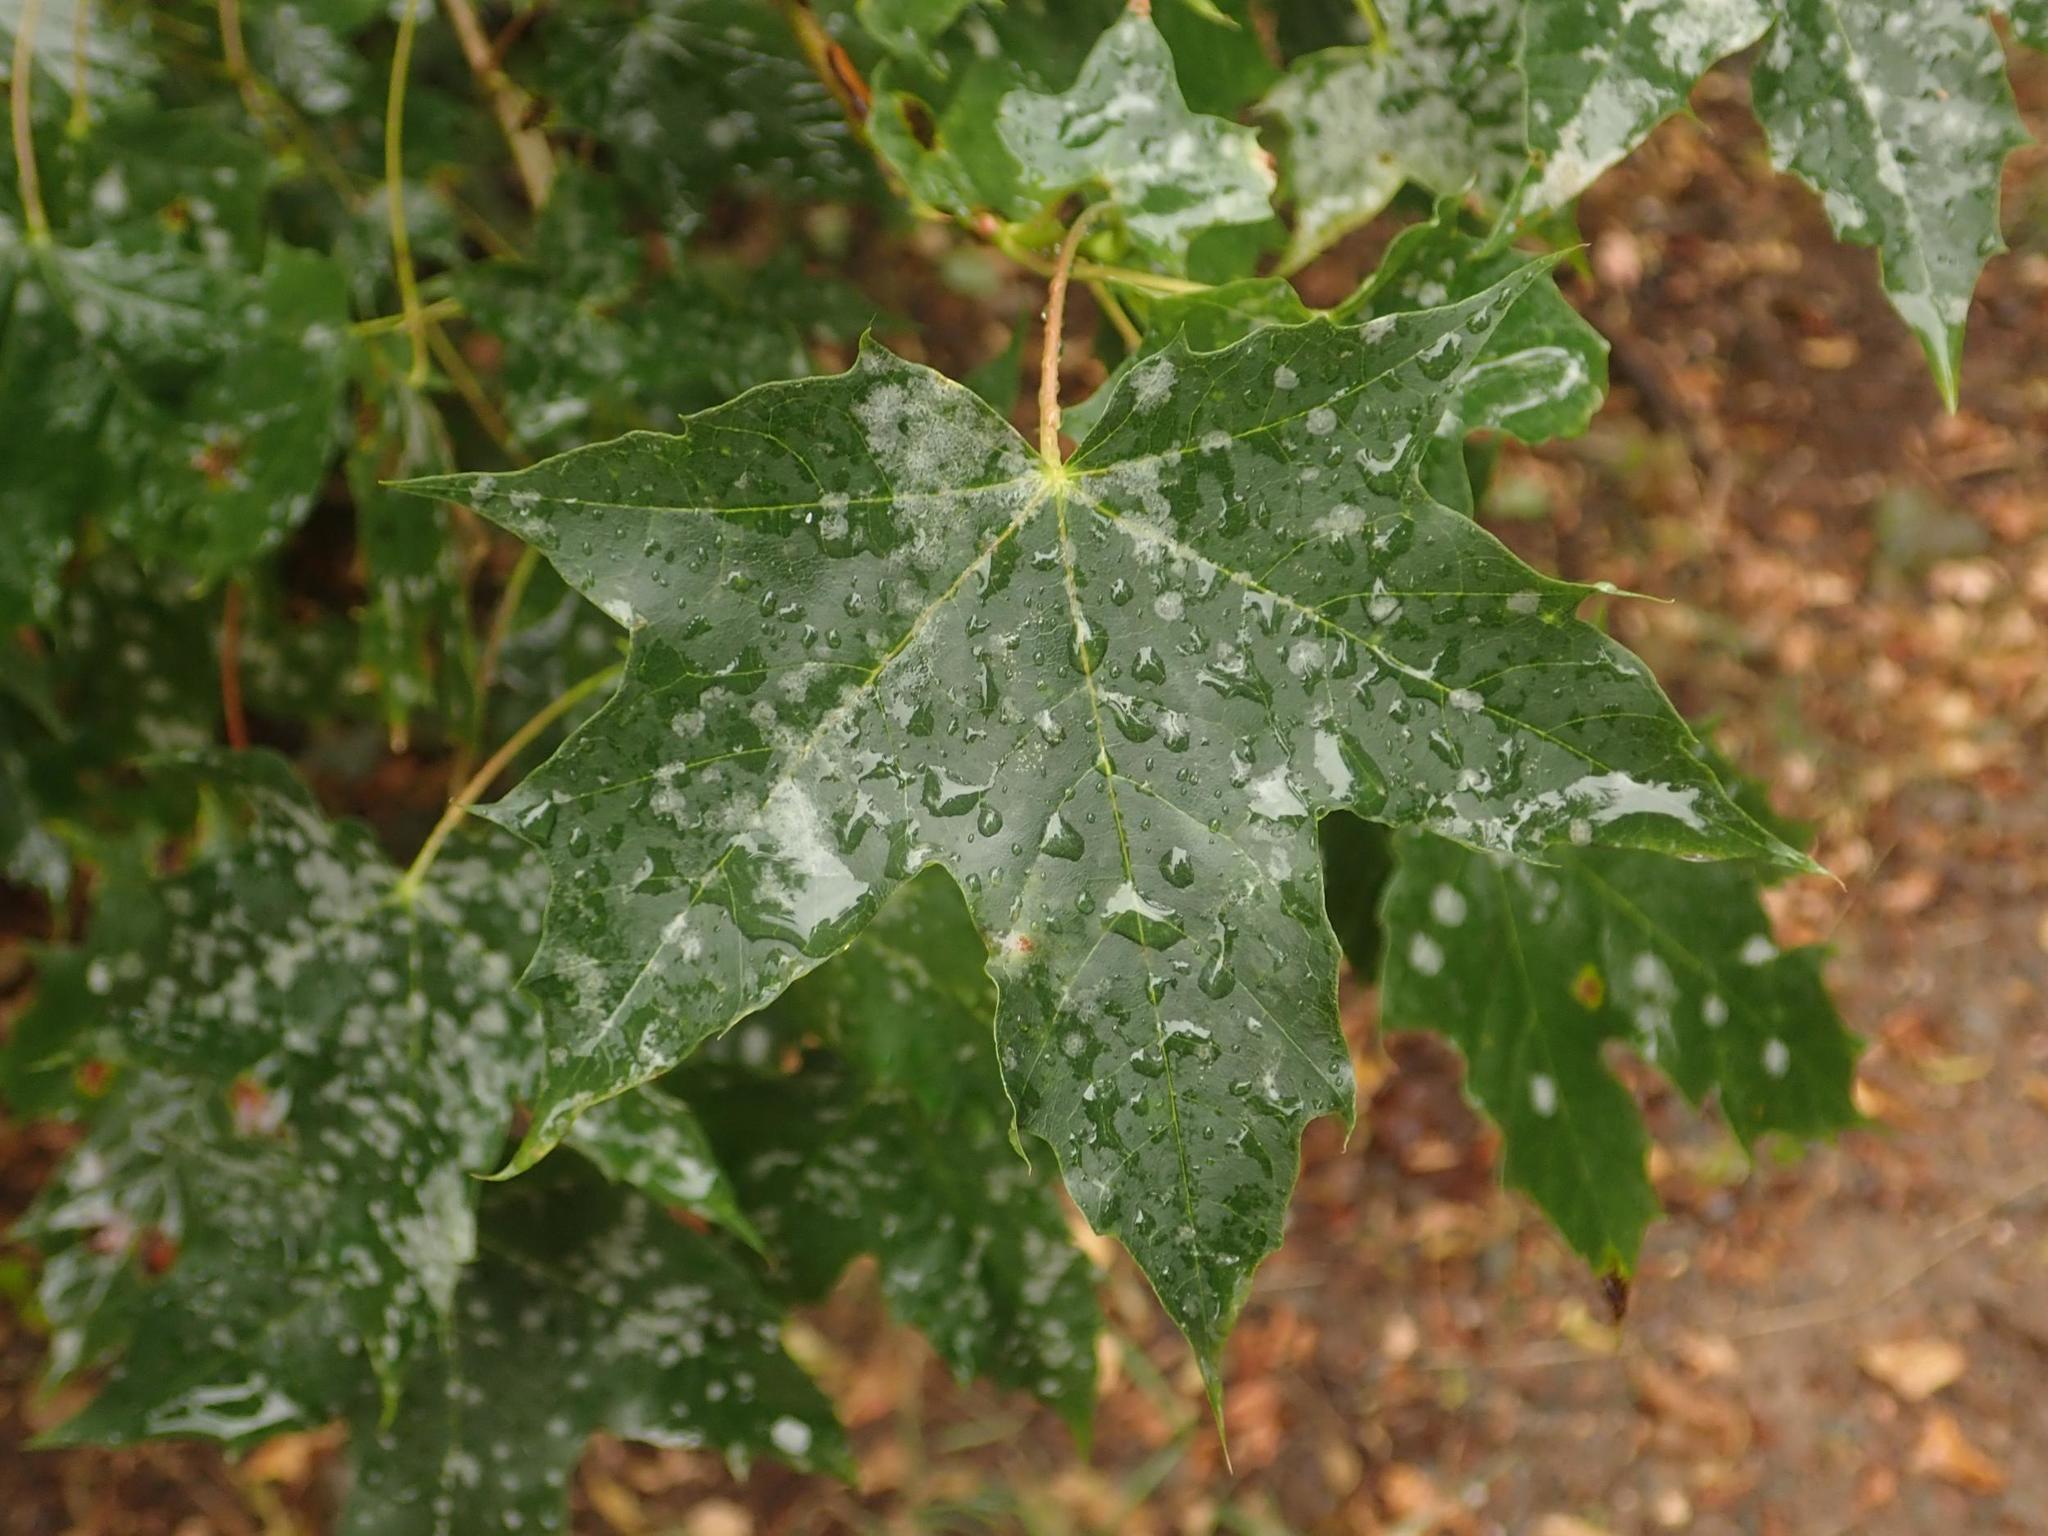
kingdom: Plantae
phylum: Tracheophyta
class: Magnoliopsida
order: Sapindales
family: Sapindaceae
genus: Acer
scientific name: Acer platanoides
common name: Norway maple
